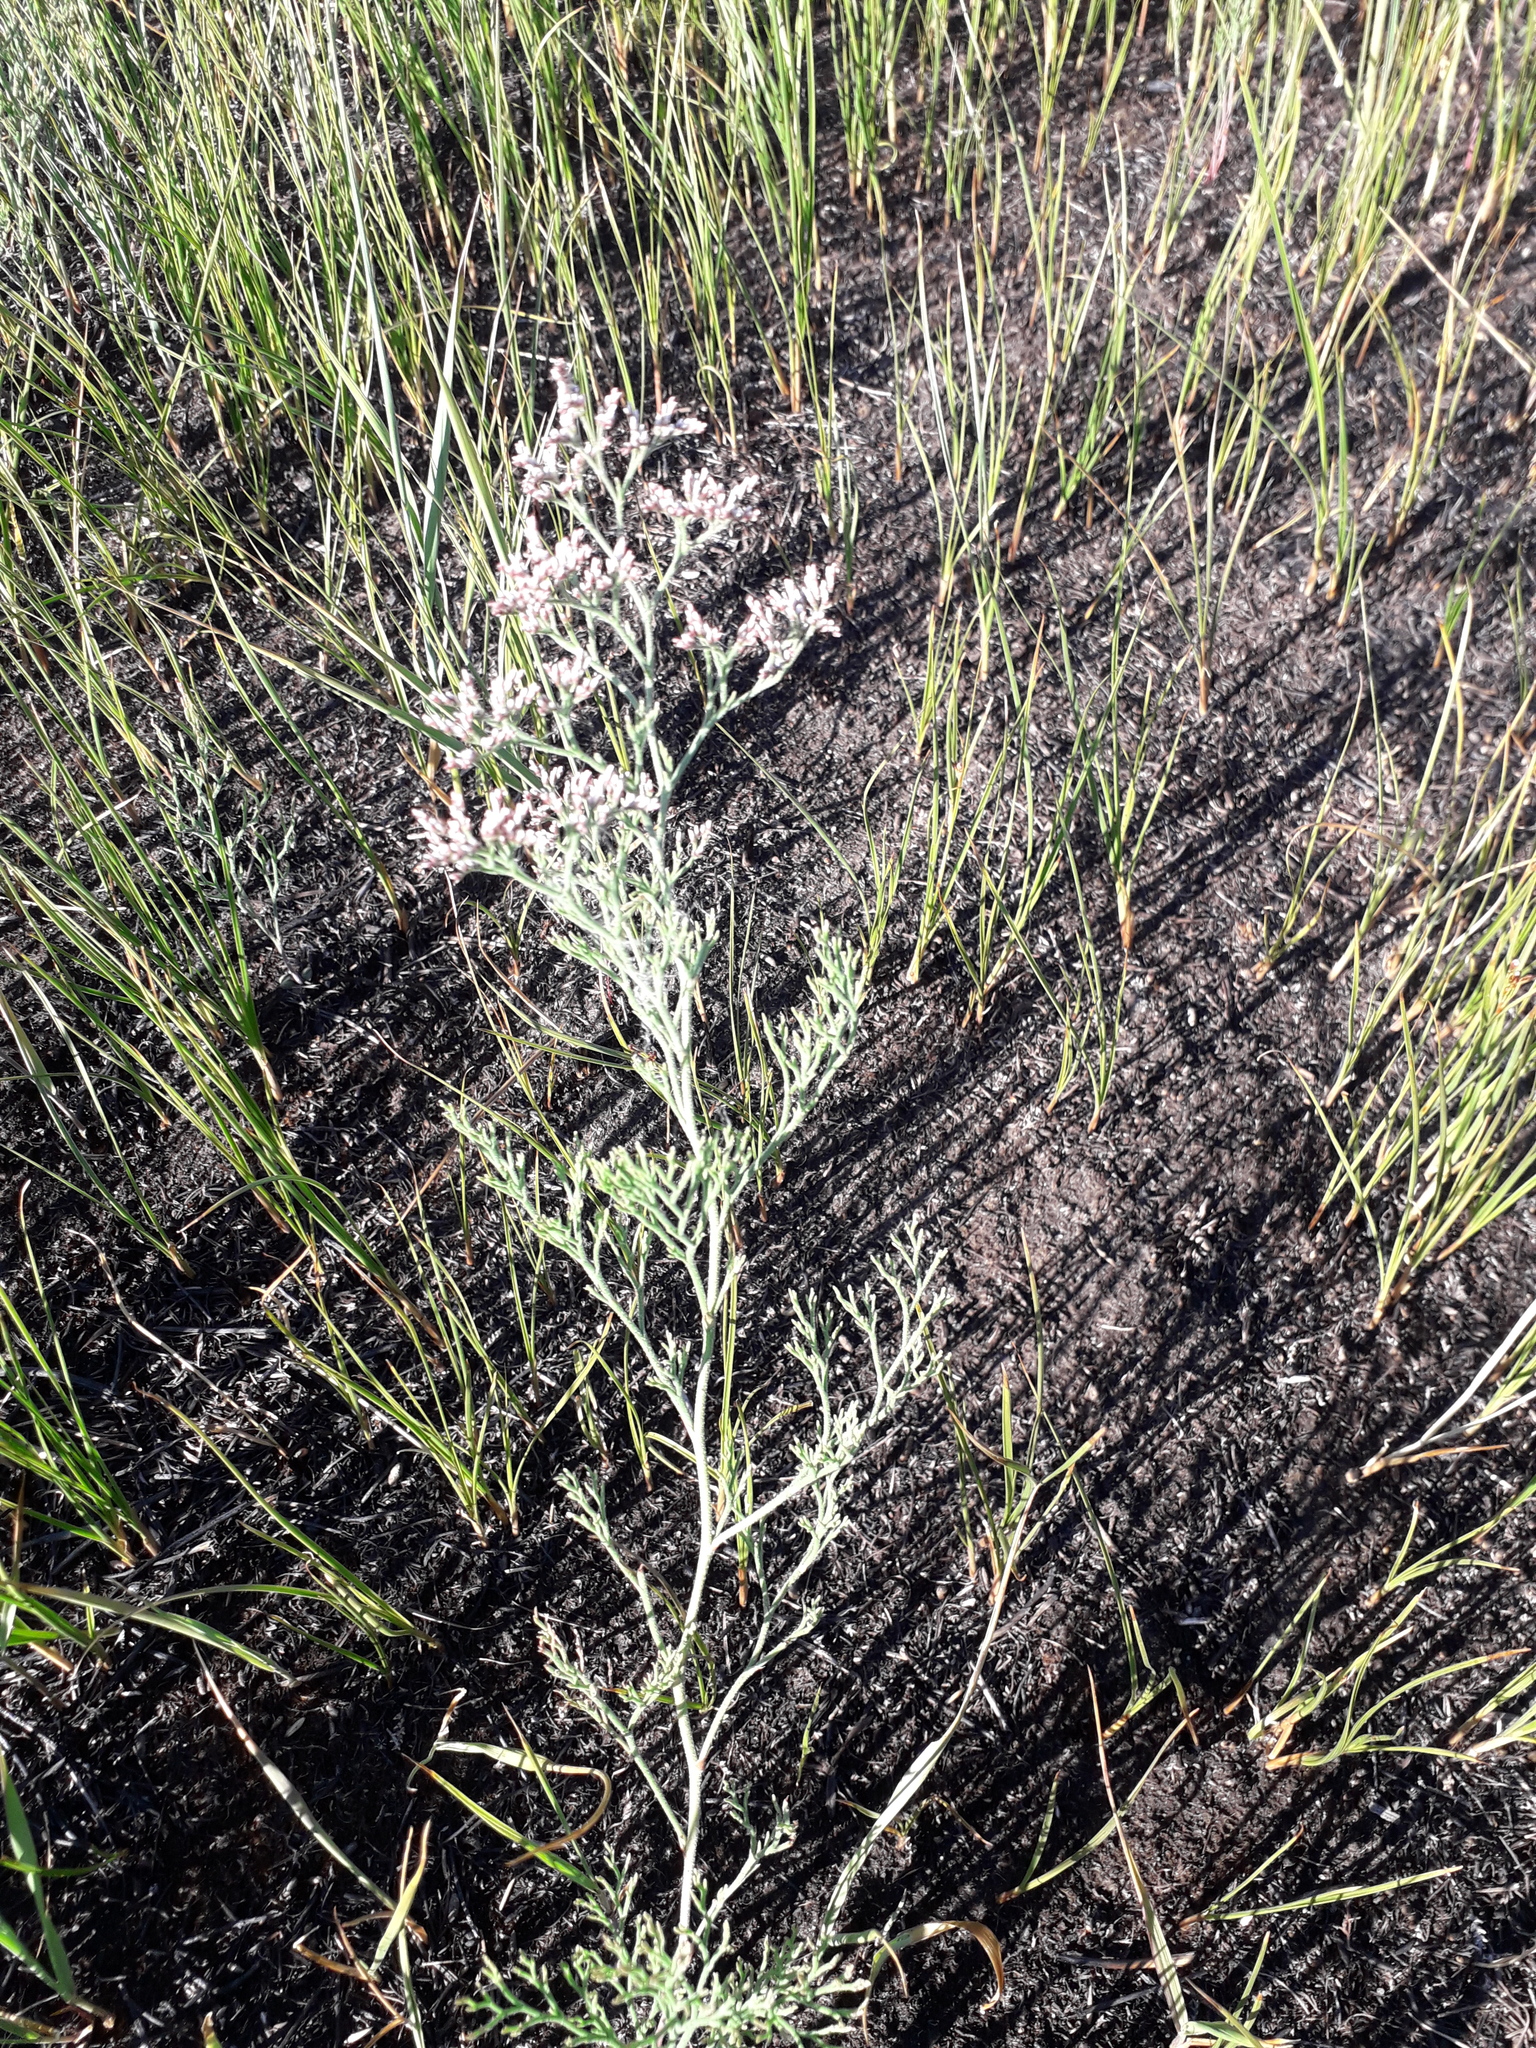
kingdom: Plantae
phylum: Tracheophyta
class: Magnoliopsida
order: Caryophyllales
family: Plumbaginaceae
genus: Limonium
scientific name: Limonium bellidifolium
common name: Matted sea-lavender
